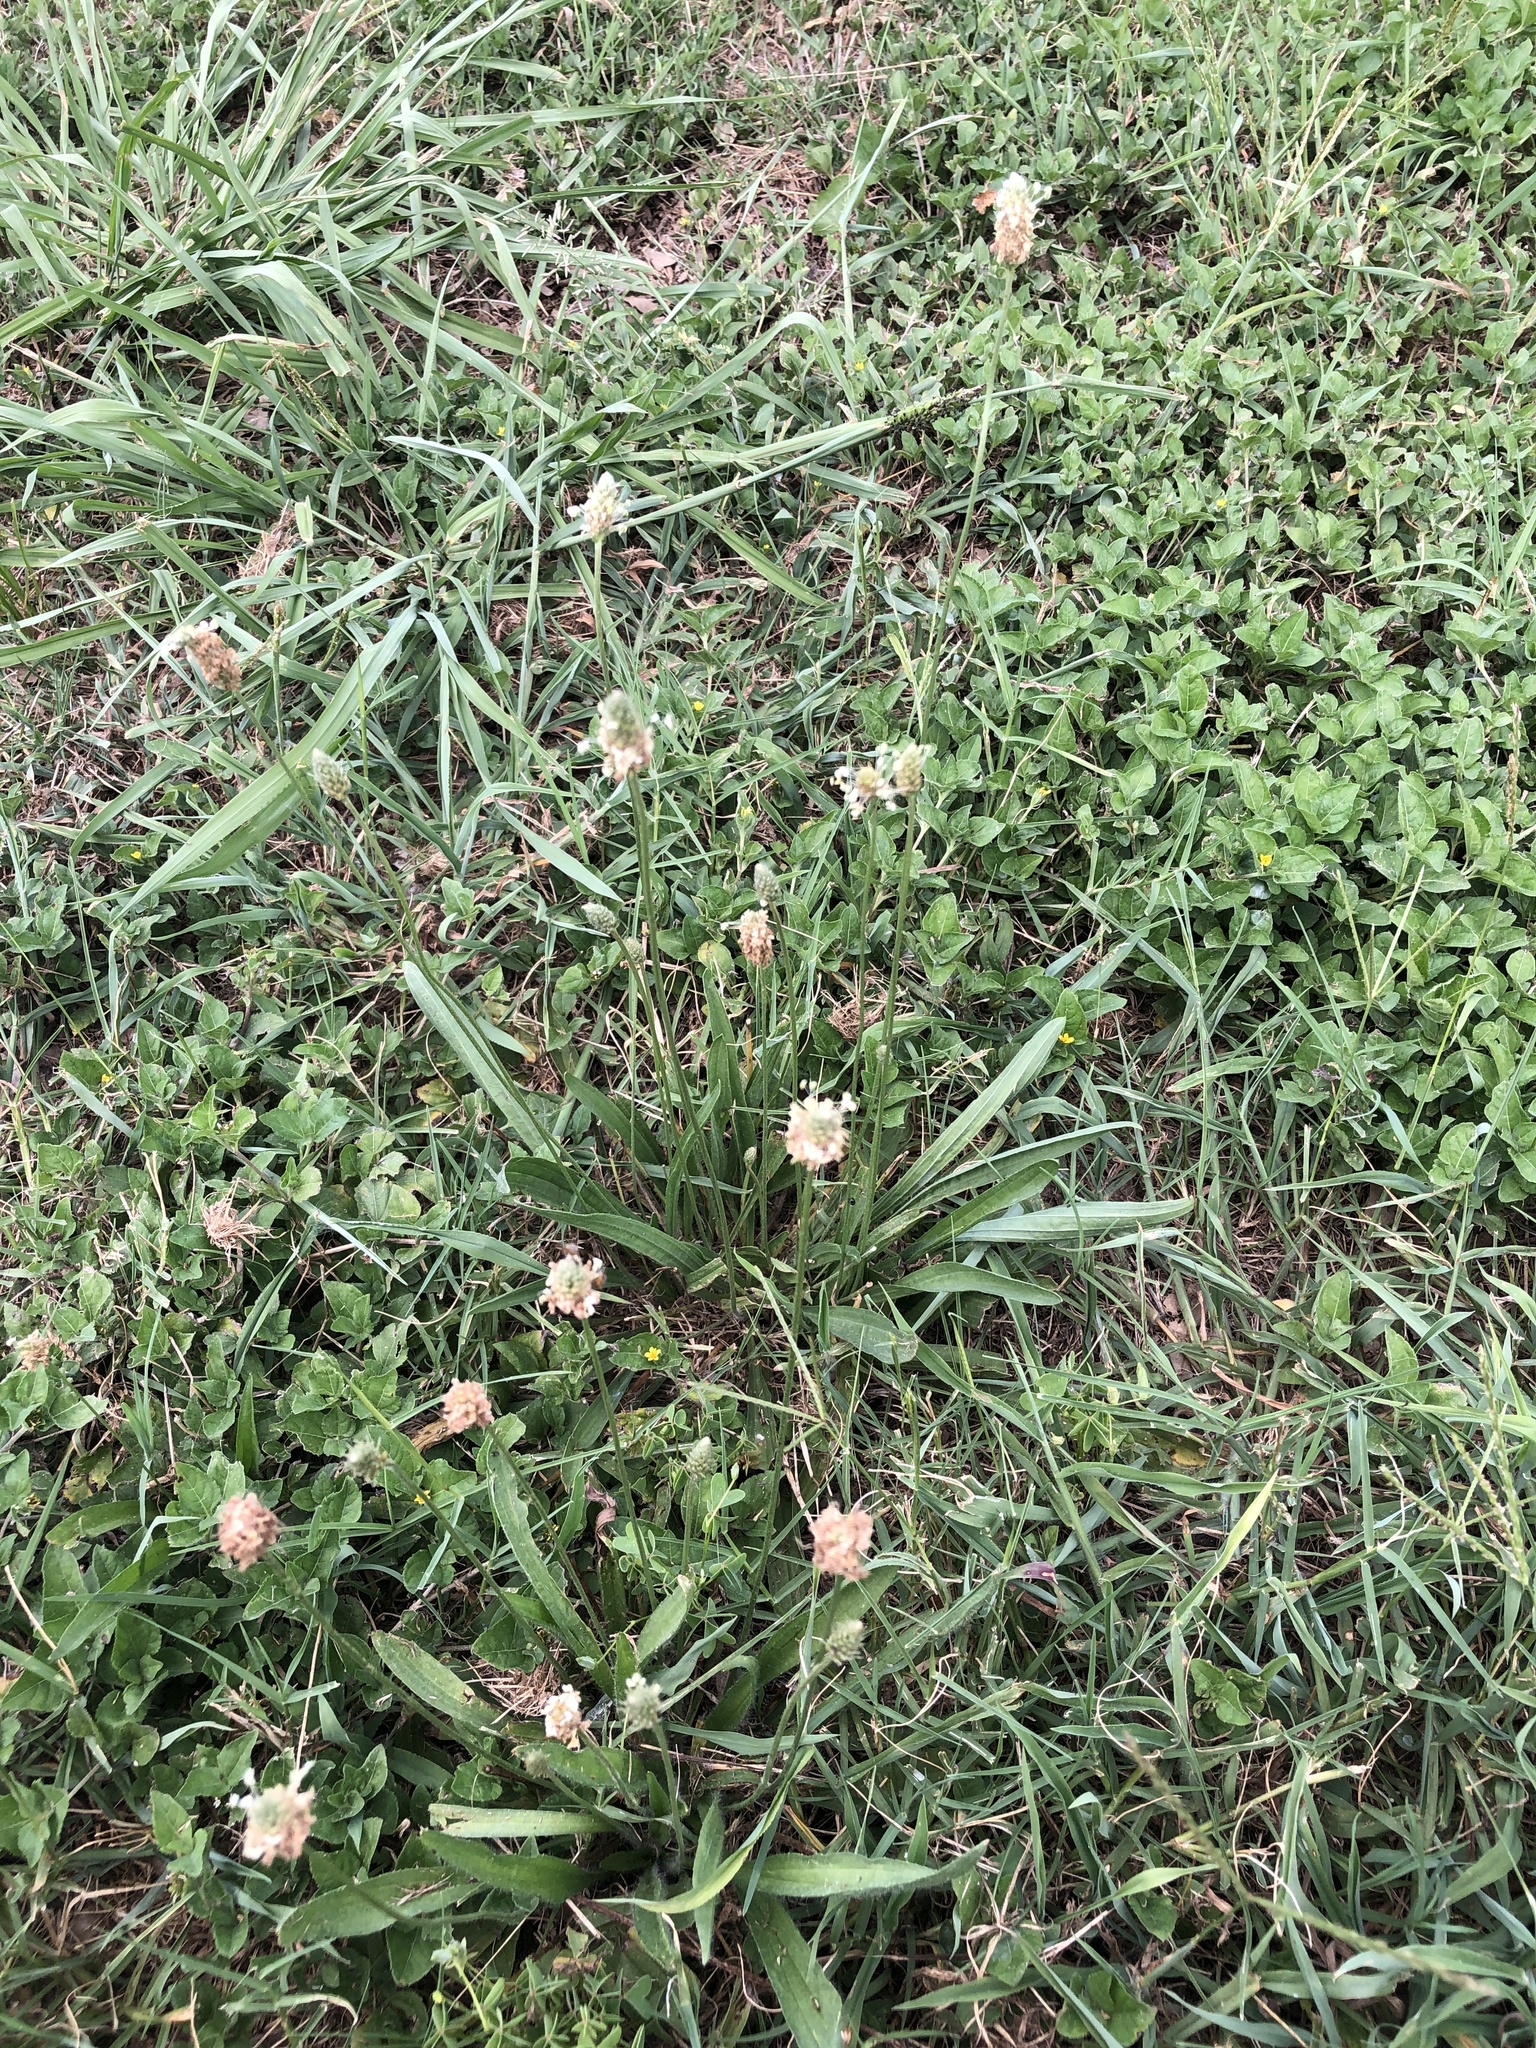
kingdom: Plantae
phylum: Tracheophyta
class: Magnoliopsida
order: Lamiales
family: Plantaginaceae
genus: Plantago
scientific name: Plantago lanceolata
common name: Ribwort plantain
